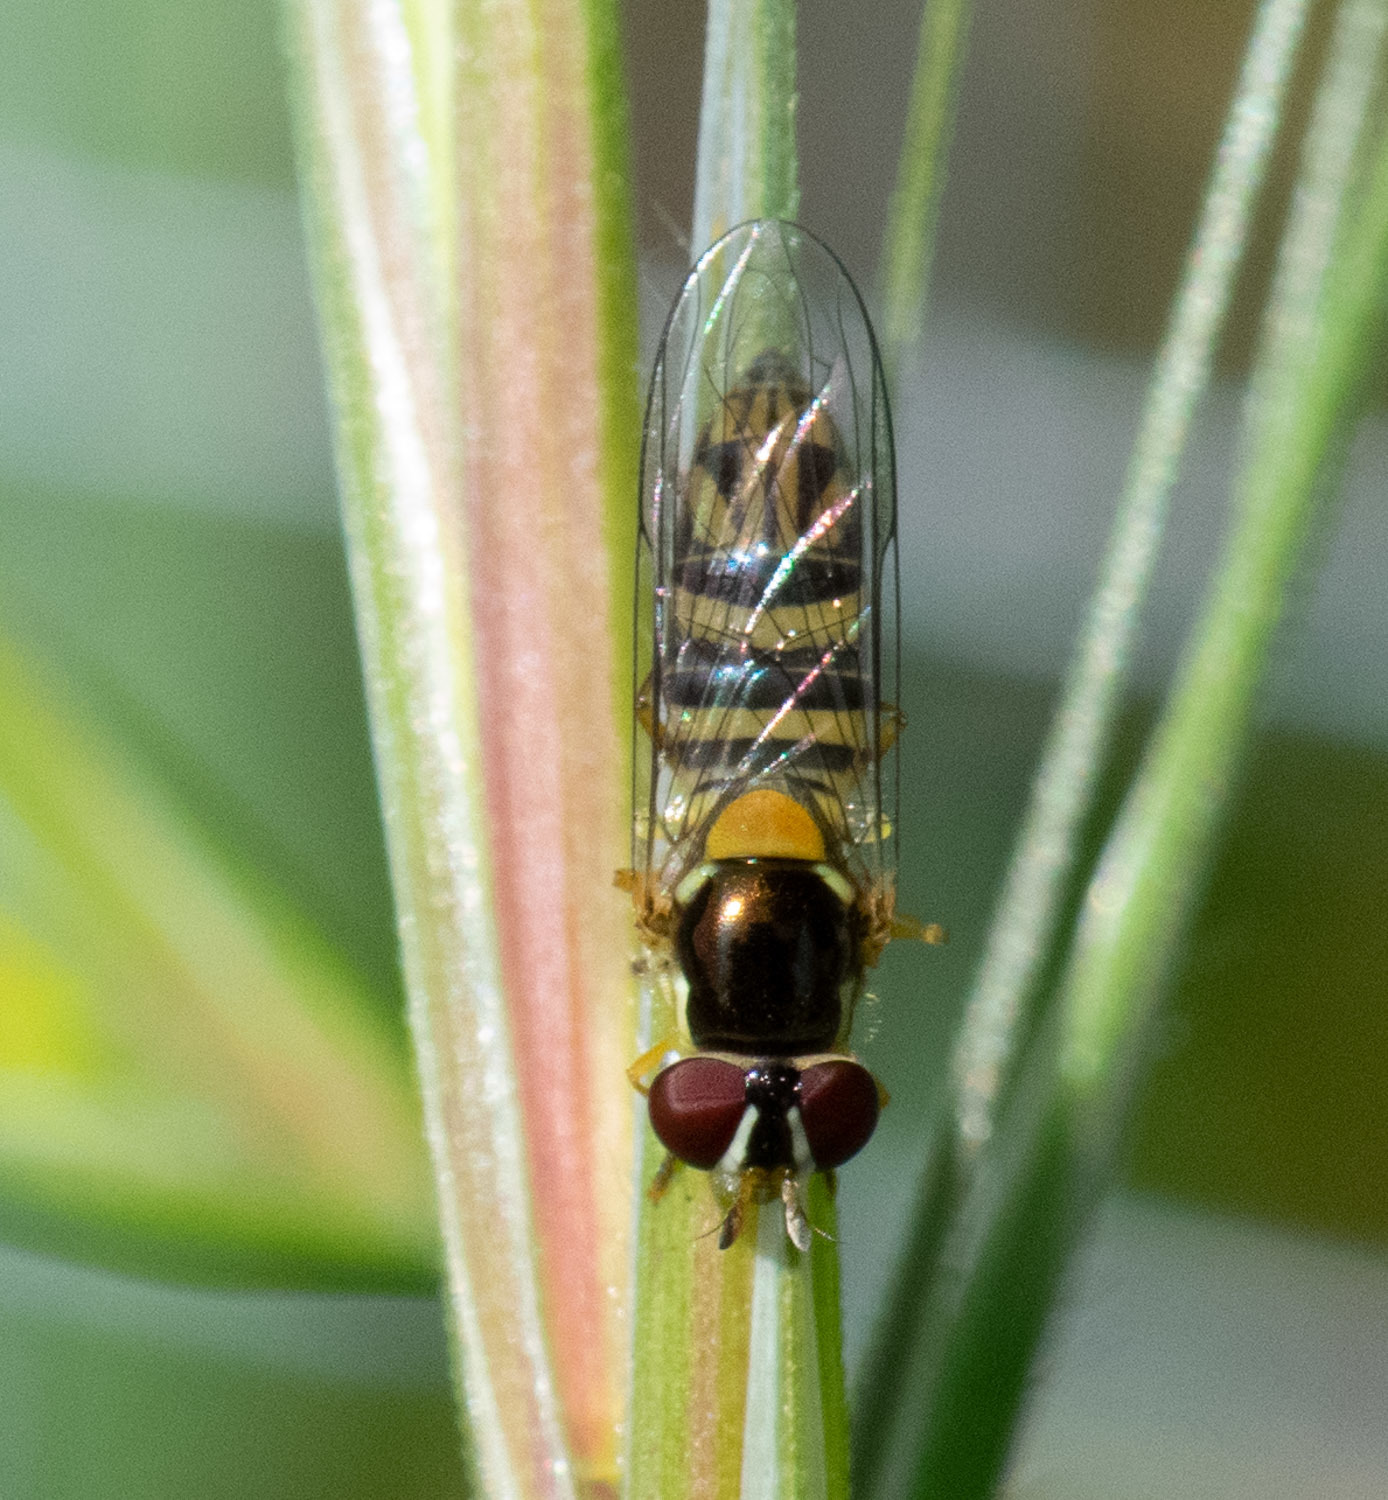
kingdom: Animalia
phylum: Arthropoda
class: Insecta
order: Diptera
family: Syrphidae
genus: Allograpta
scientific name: Allograpta obliqua
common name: Common oblique syrphid
